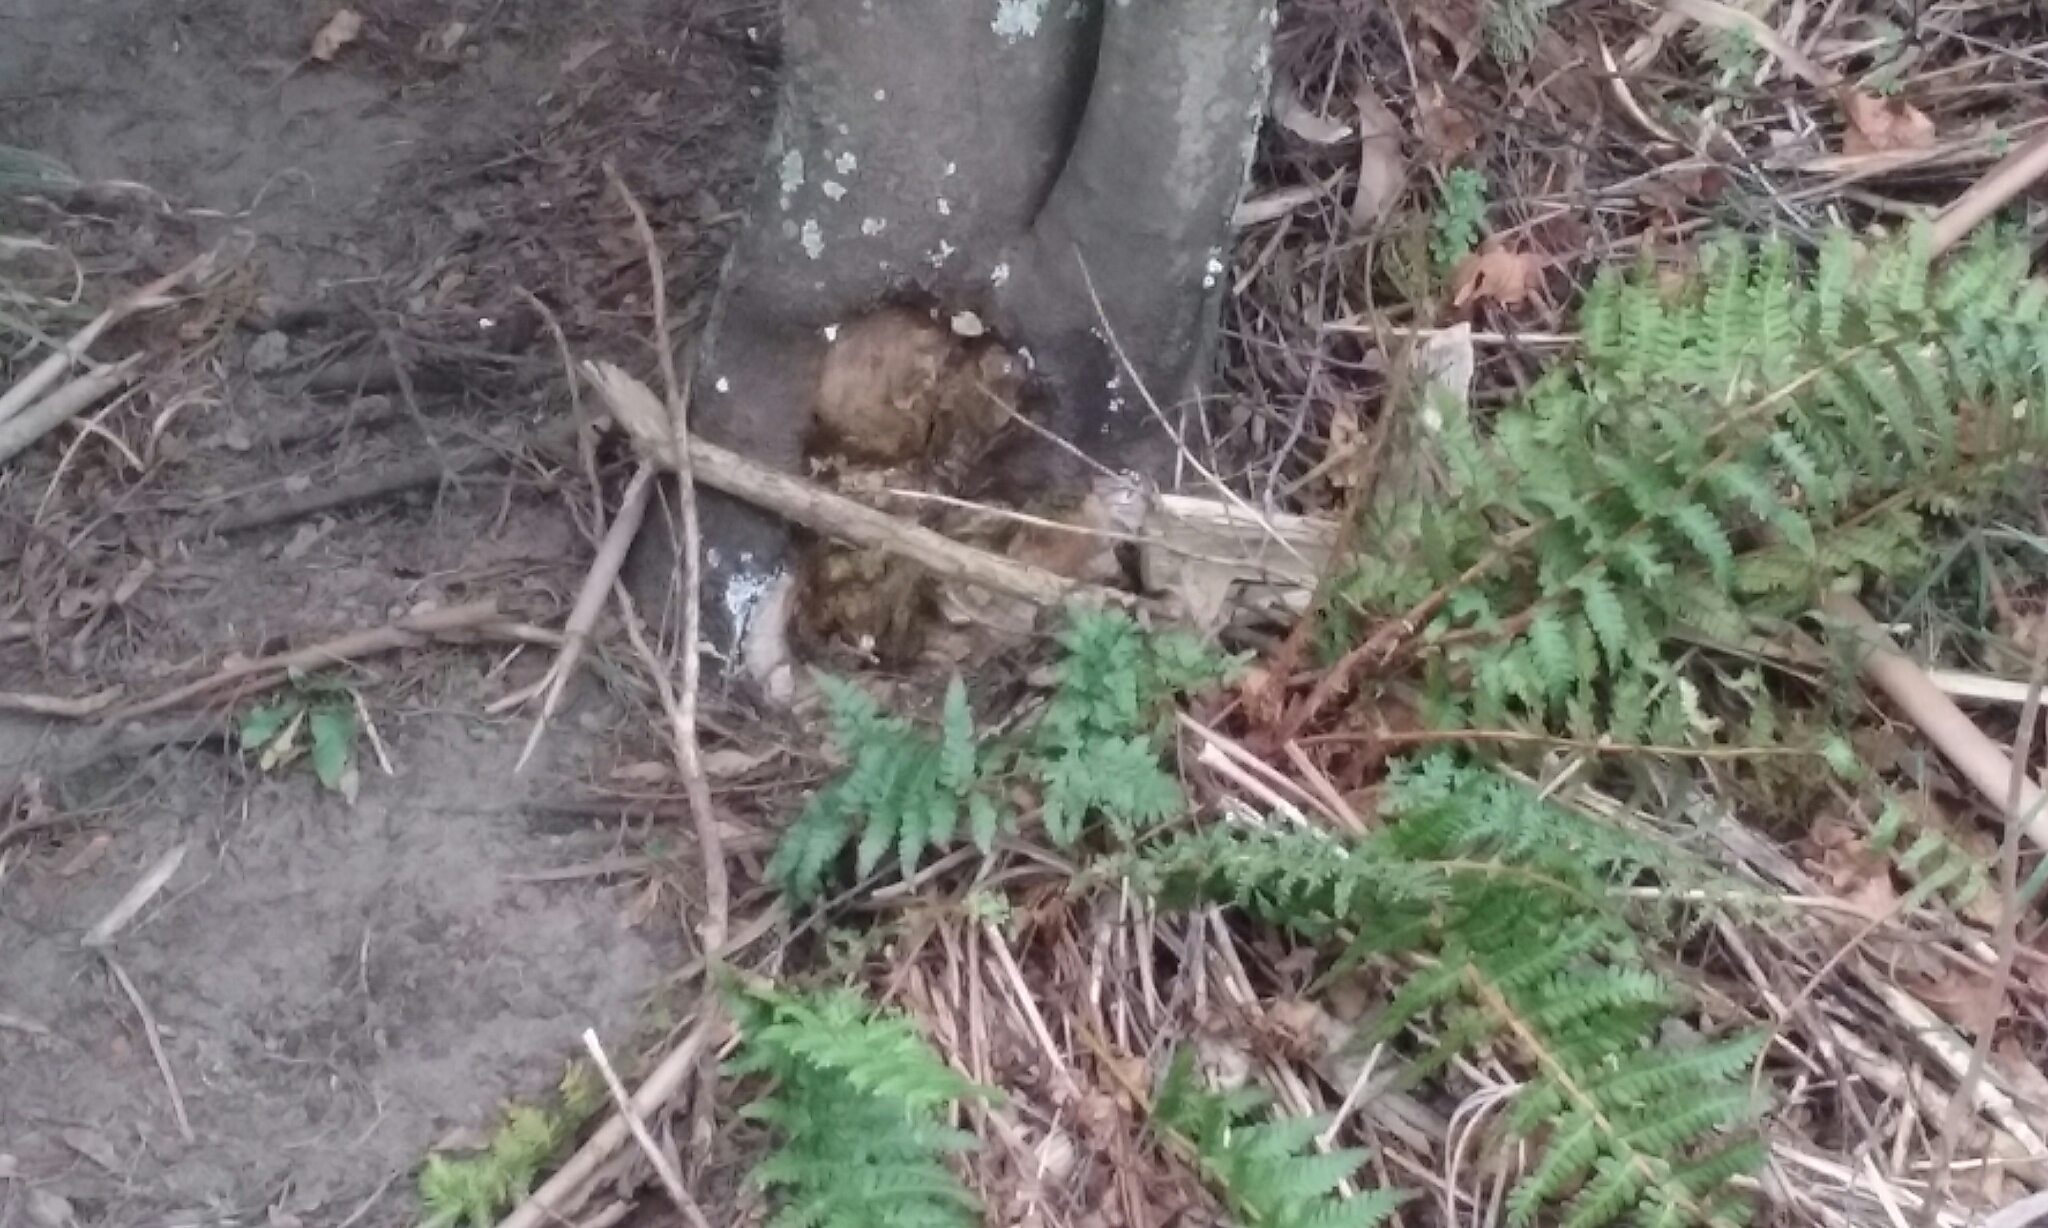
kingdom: Plantae
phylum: Tracheophyta
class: Polypodiopsida
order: Polypodiales
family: Dryopteridaceae
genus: Dryopteris
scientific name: Dryopteris filix-mas
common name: Male fern
